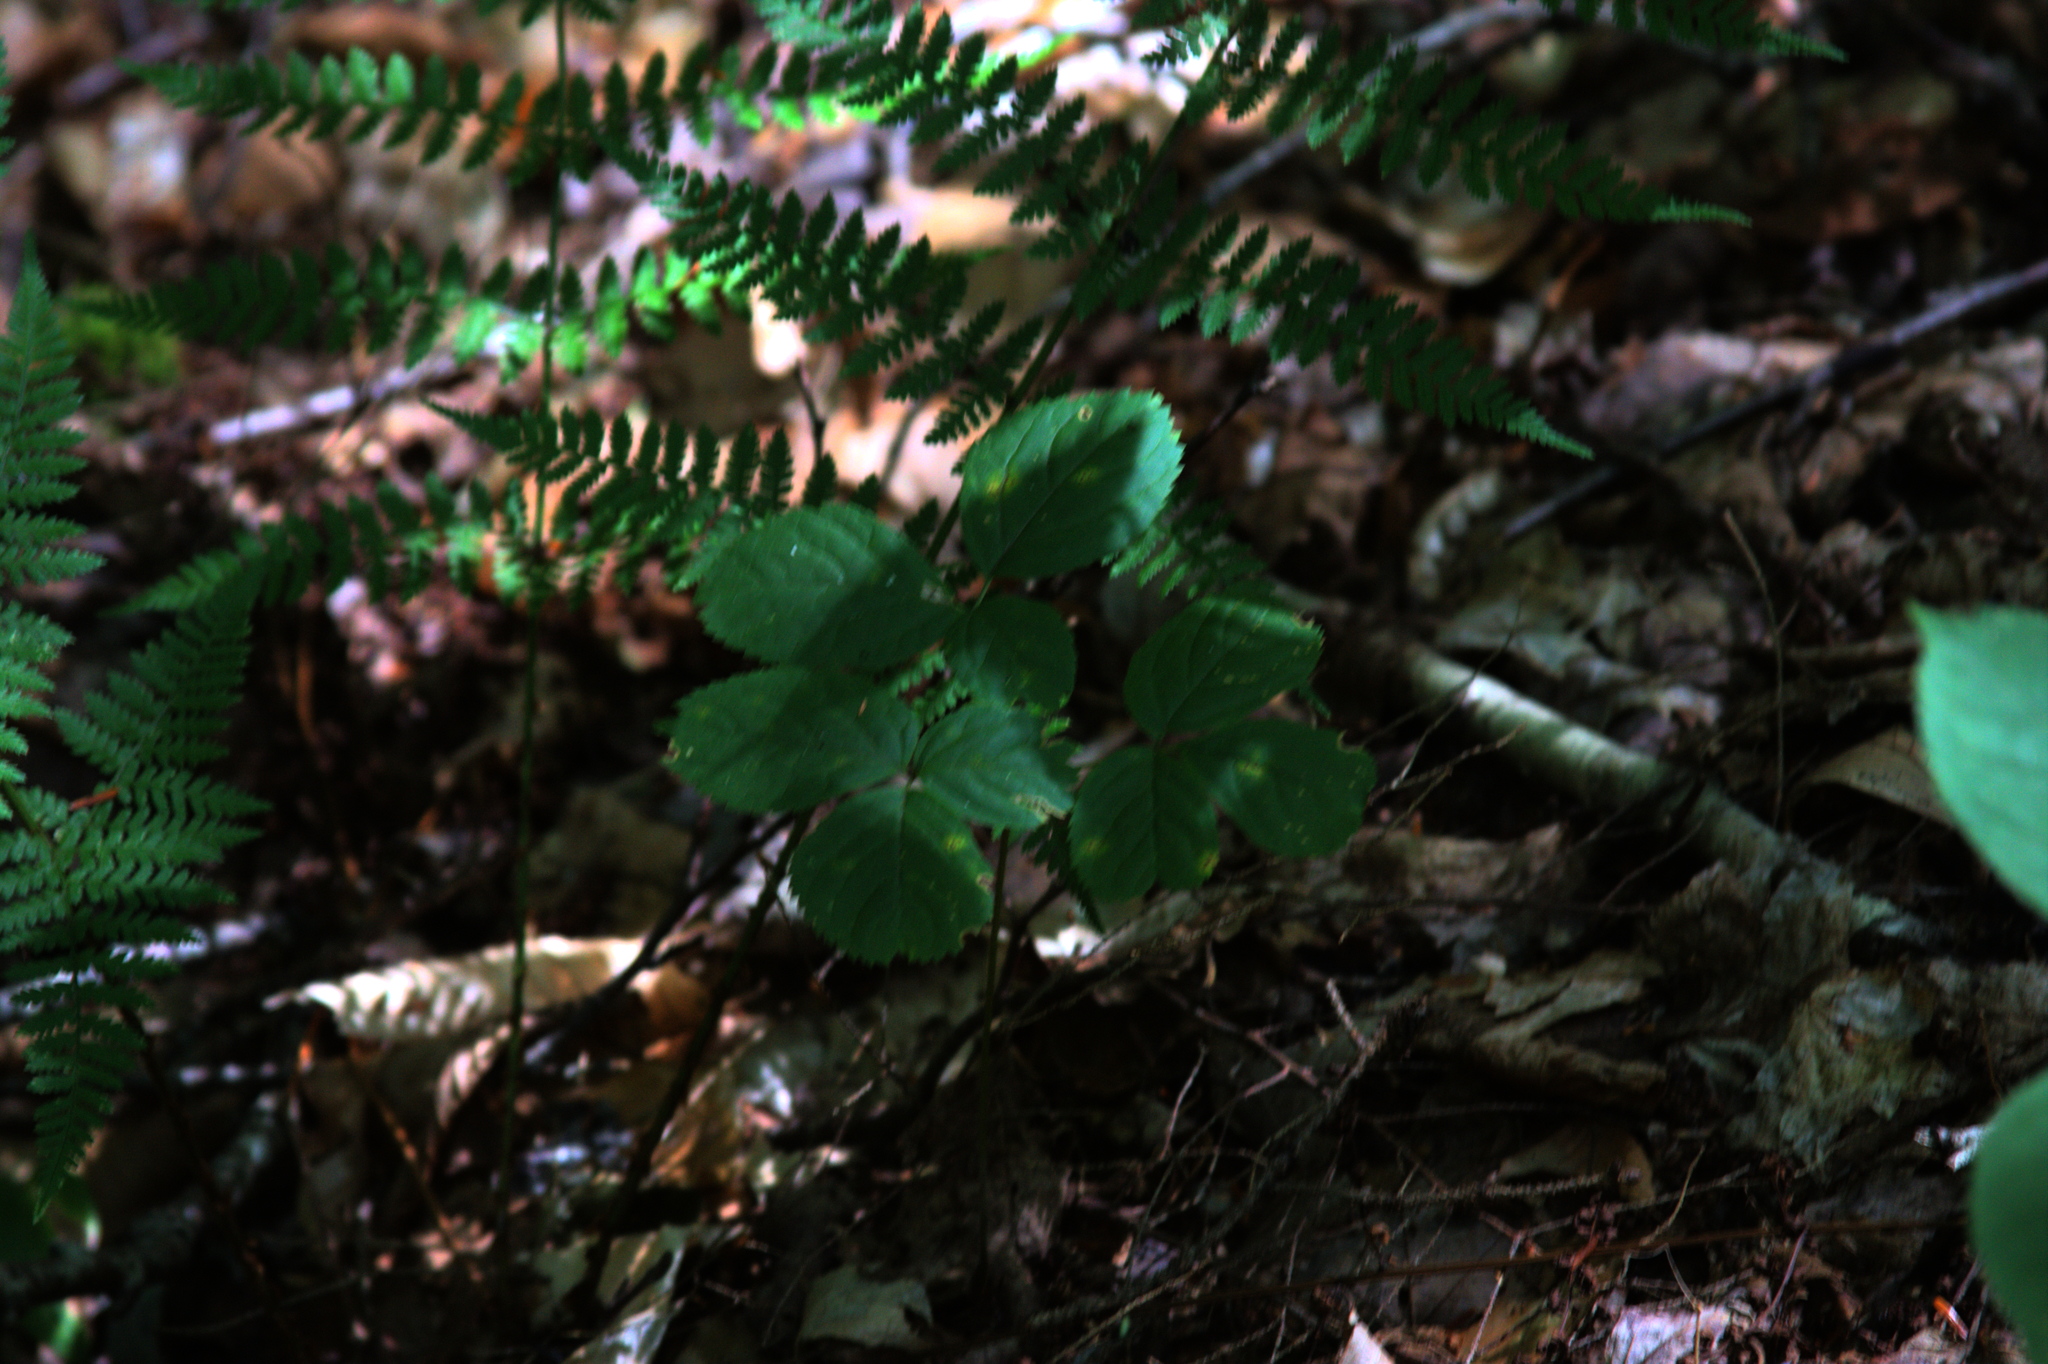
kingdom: Plantae
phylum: Tracheophyta
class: Magnoliopsida
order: Apiales
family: Araliaceae
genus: Aralia
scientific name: Aralia nudicaulis
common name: Wild sarsaparilla
